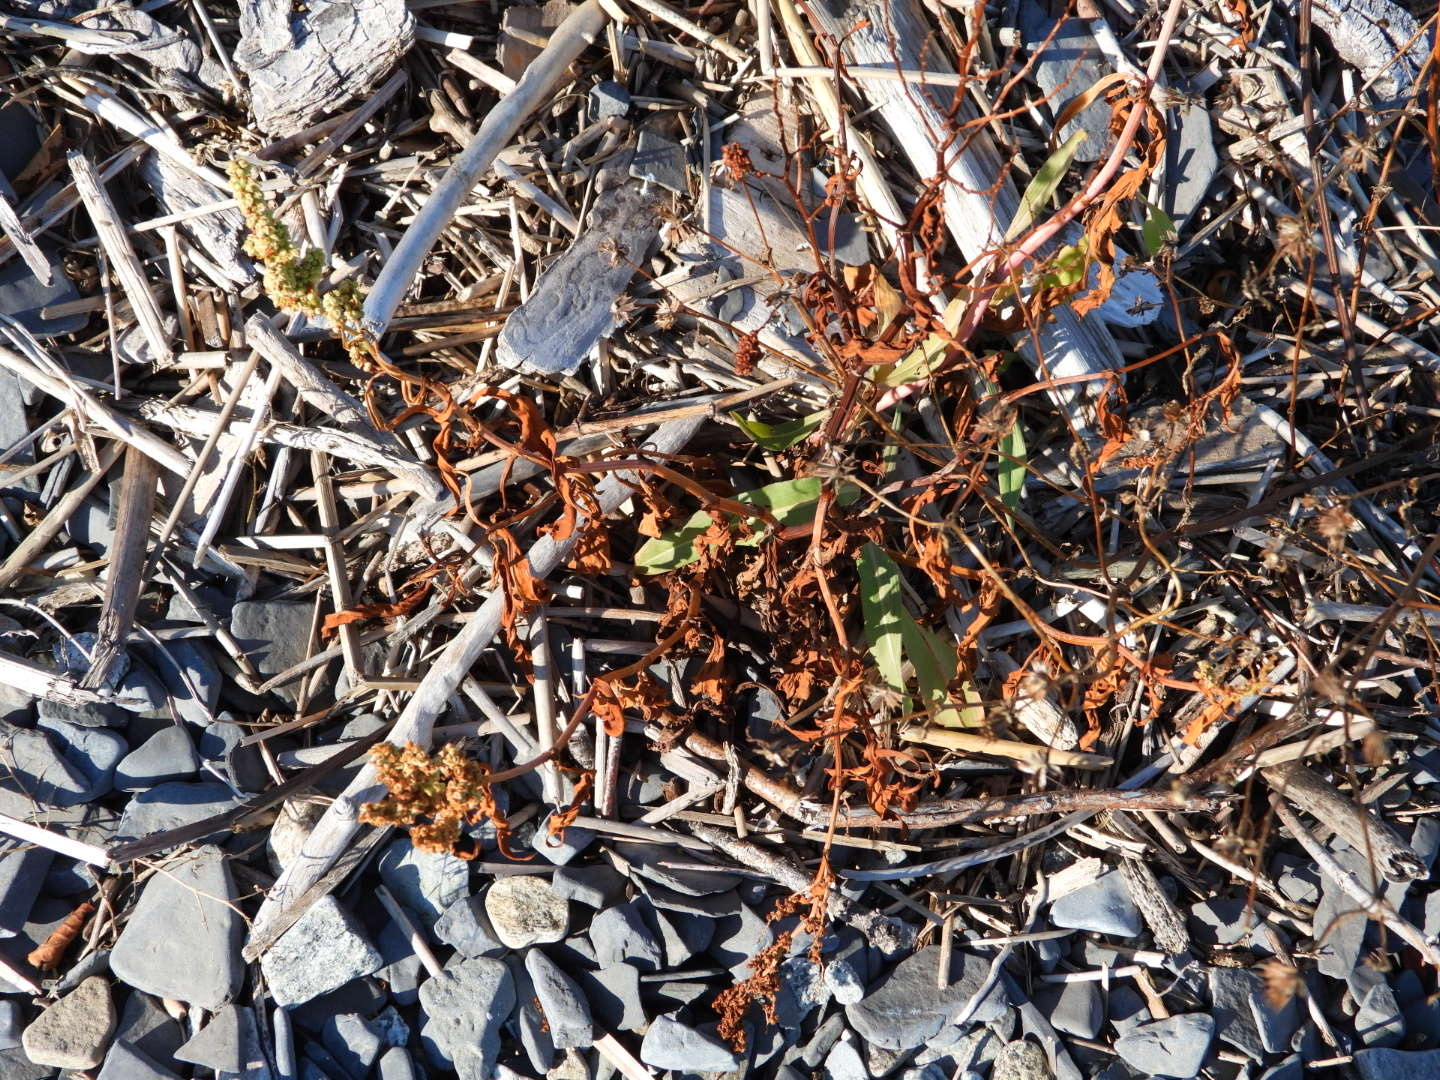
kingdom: Plantae
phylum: Tracheophyta
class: Magnoliopsida
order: Caryophyllales
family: Polygonaceae
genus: Rumex
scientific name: Rumex pallidus
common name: Large-tuberculed dock
